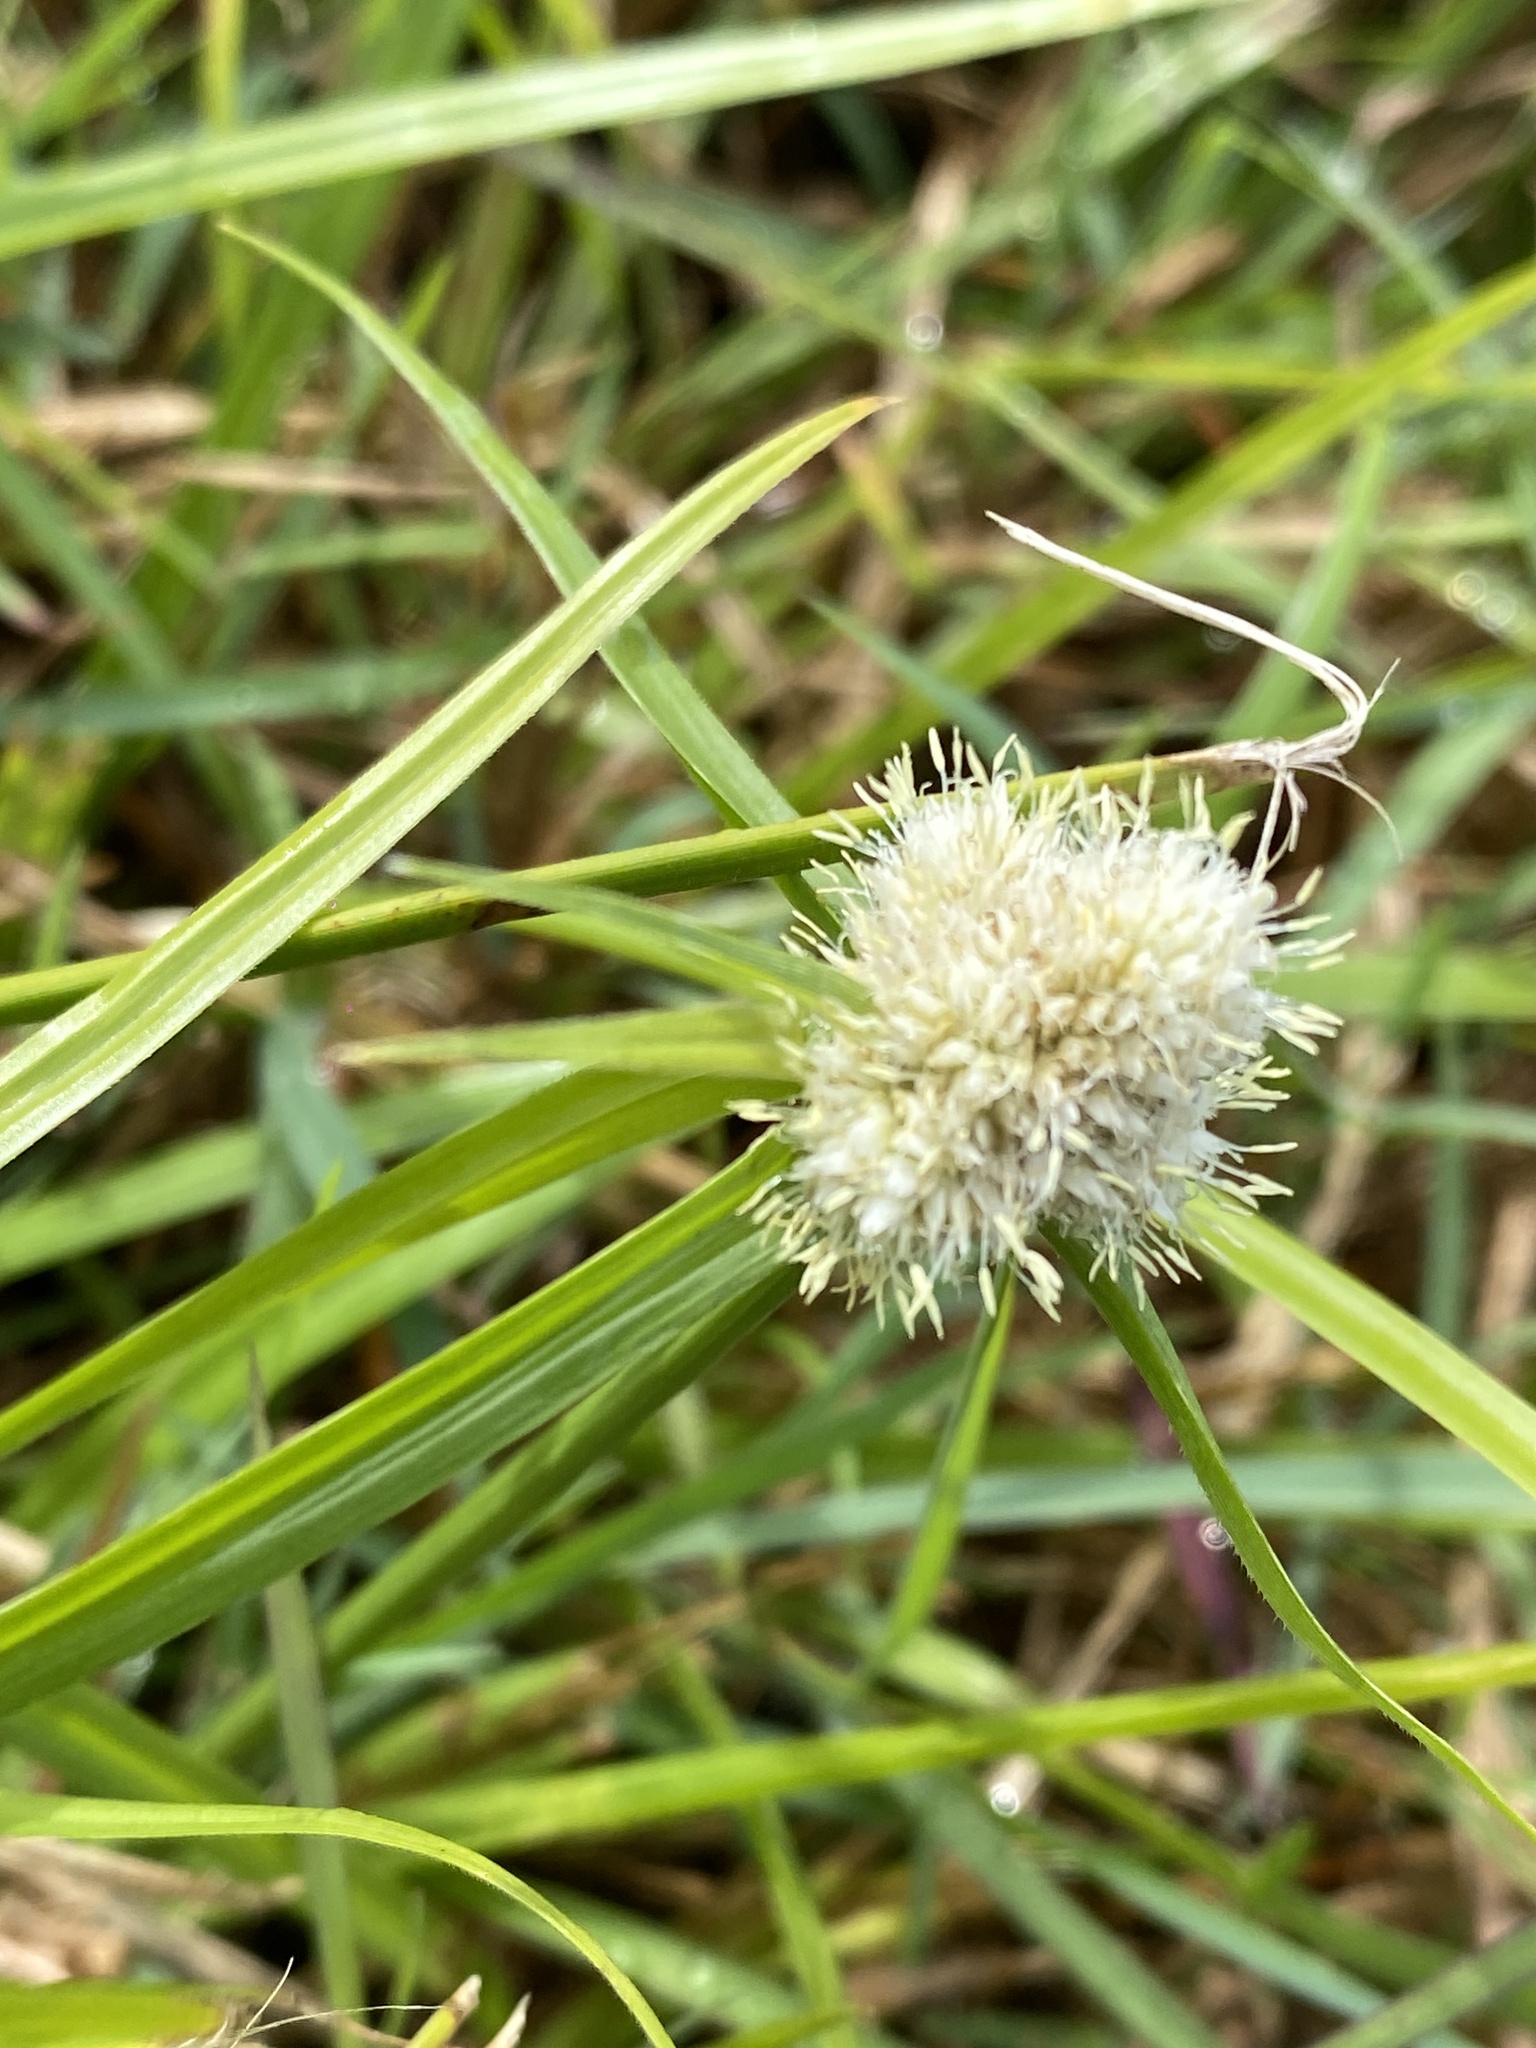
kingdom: Plantae
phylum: Tracheophyta
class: Liliopsida
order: Poales
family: Cyperaceae
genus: Cyperus
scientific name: Cyperus sesquiflorus
